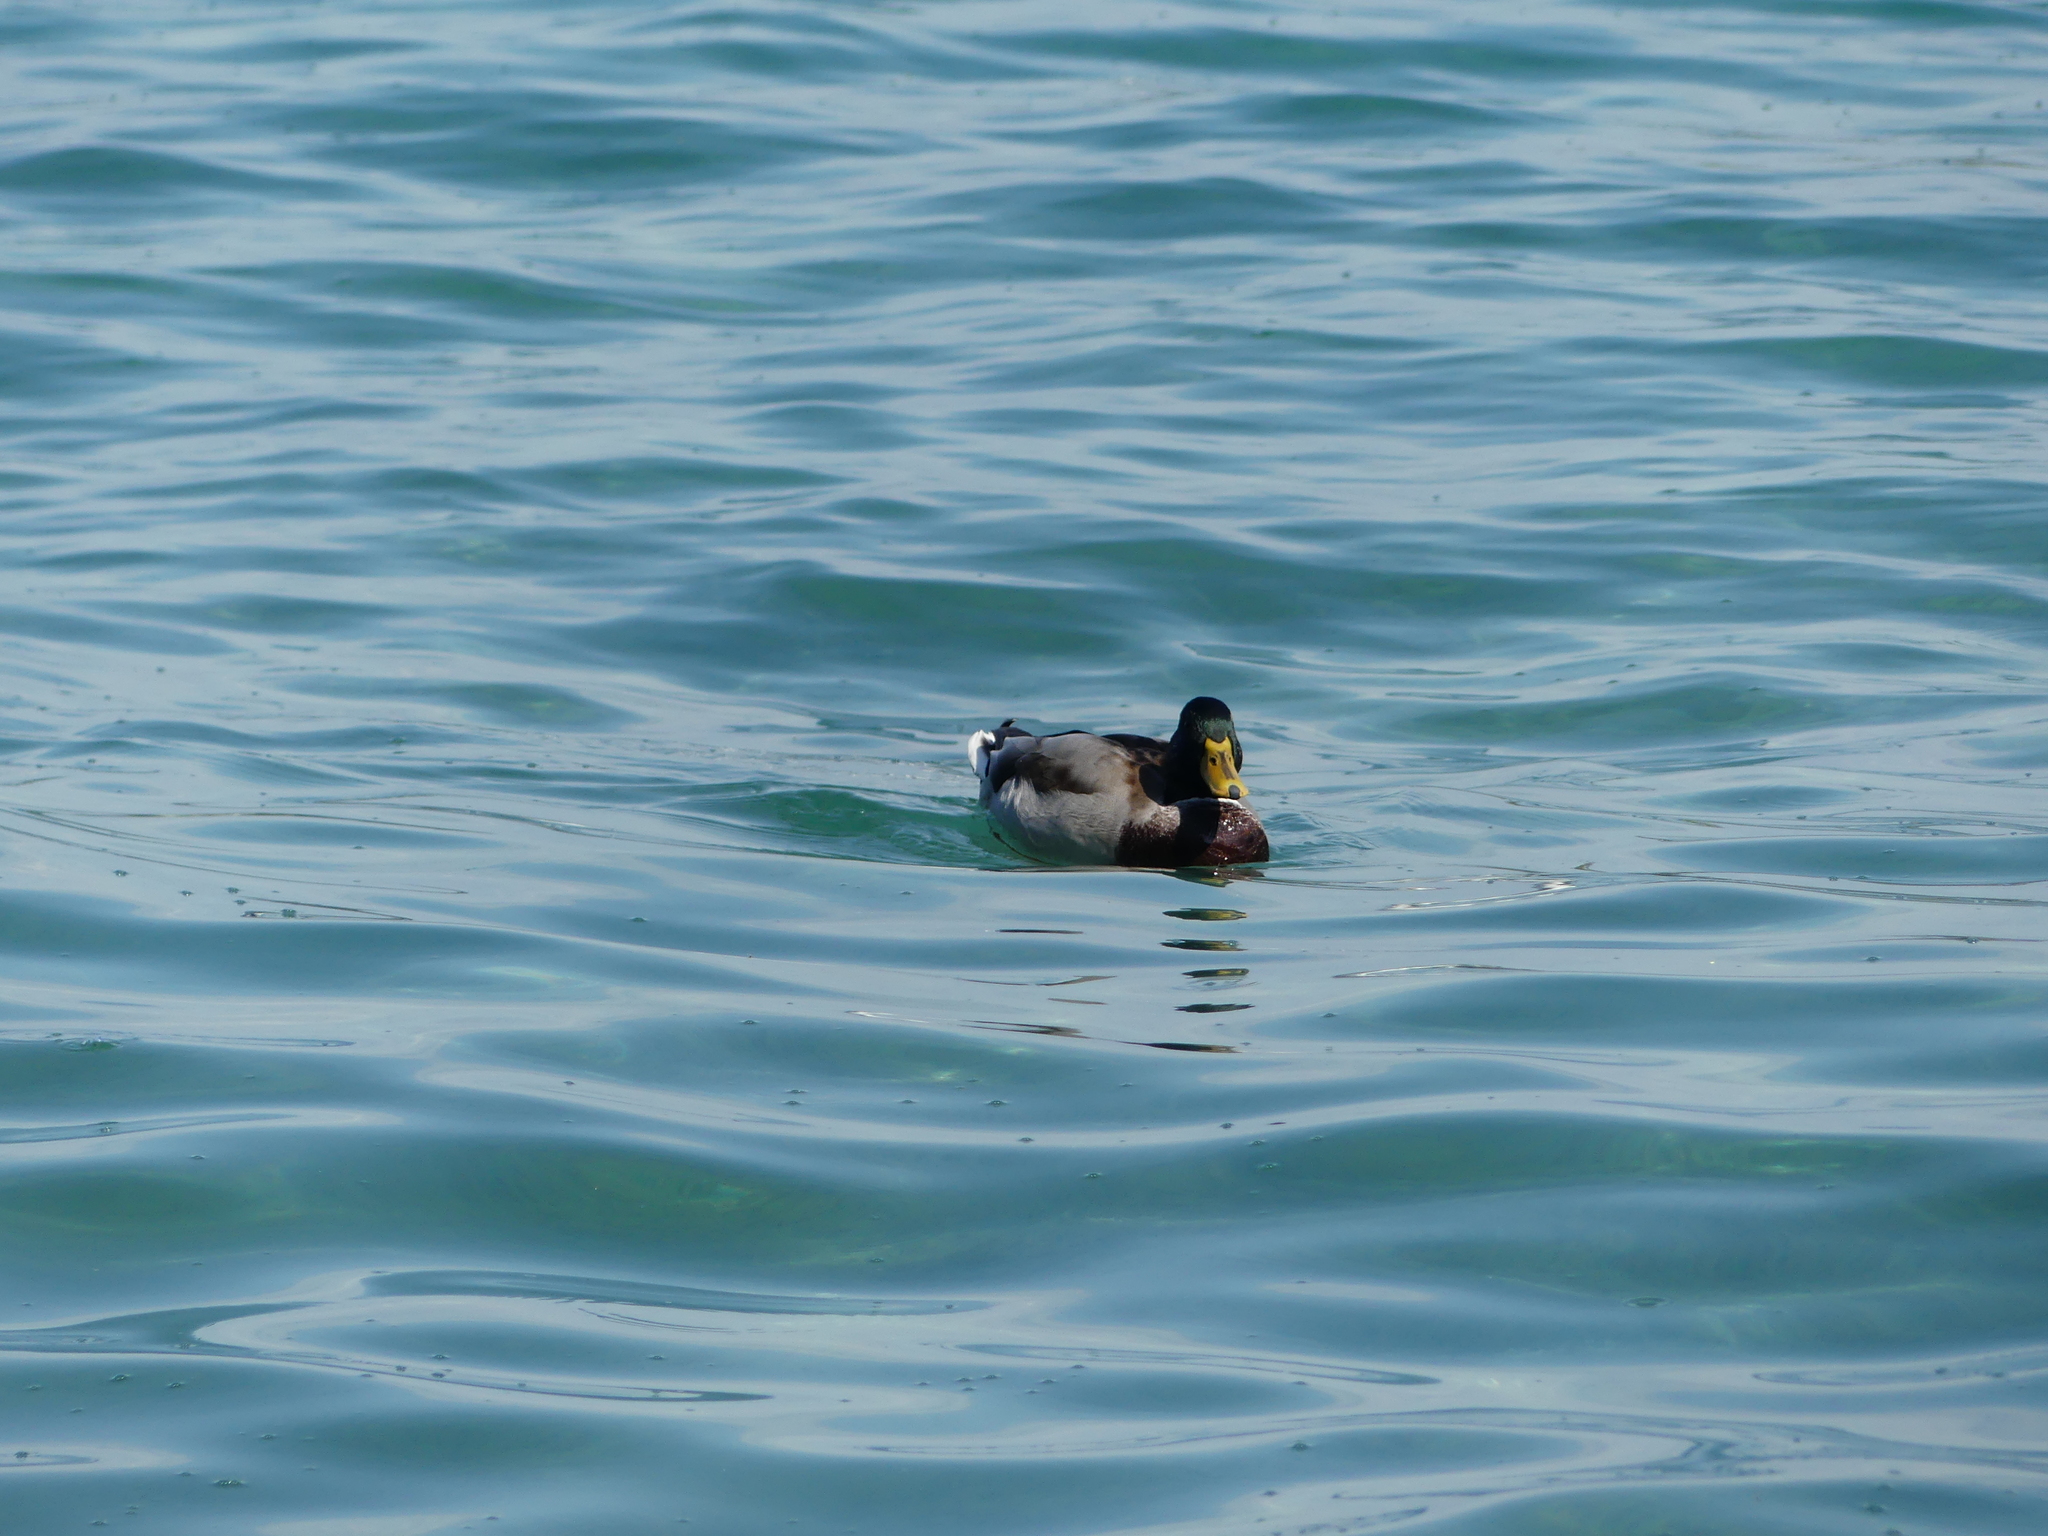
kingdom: Animalia
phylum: Chordata
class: Aves
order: Anseriformes
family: Anatidae
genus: Anas
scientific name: Anas platyrhynchos
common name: Mallard
